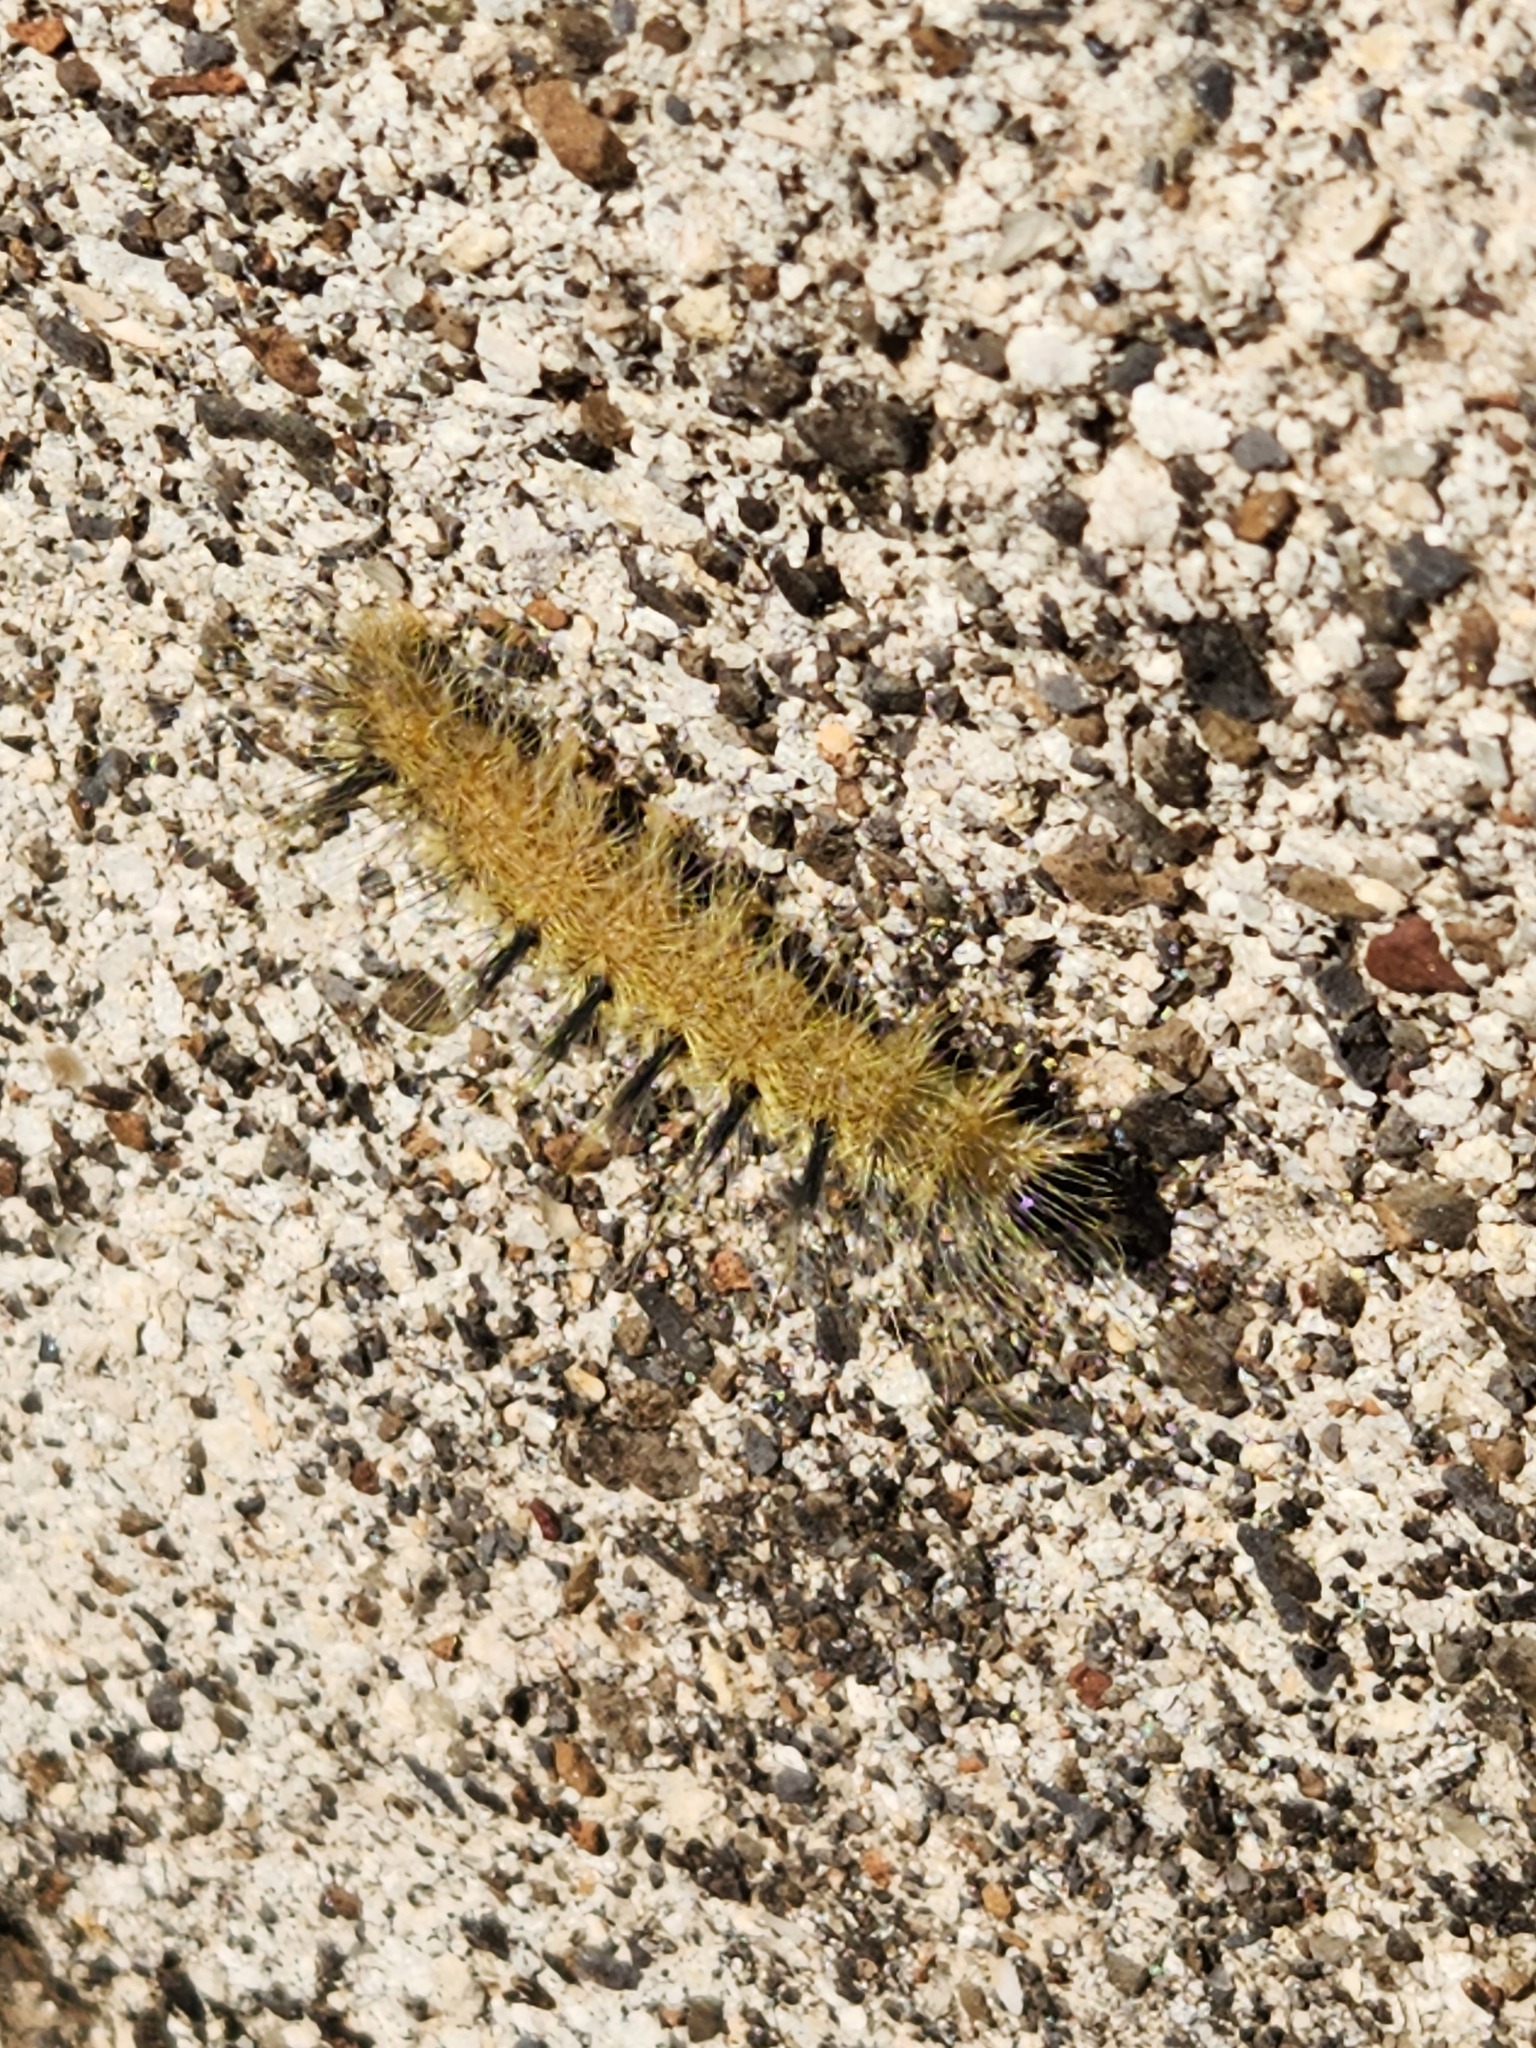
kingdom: Animalia
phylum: Arthropoda
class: Insecta
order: Lepidoptera
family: Noctuidae
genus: Acronicta
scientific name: Acronicta rubricoma
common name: Hackberry dagger
